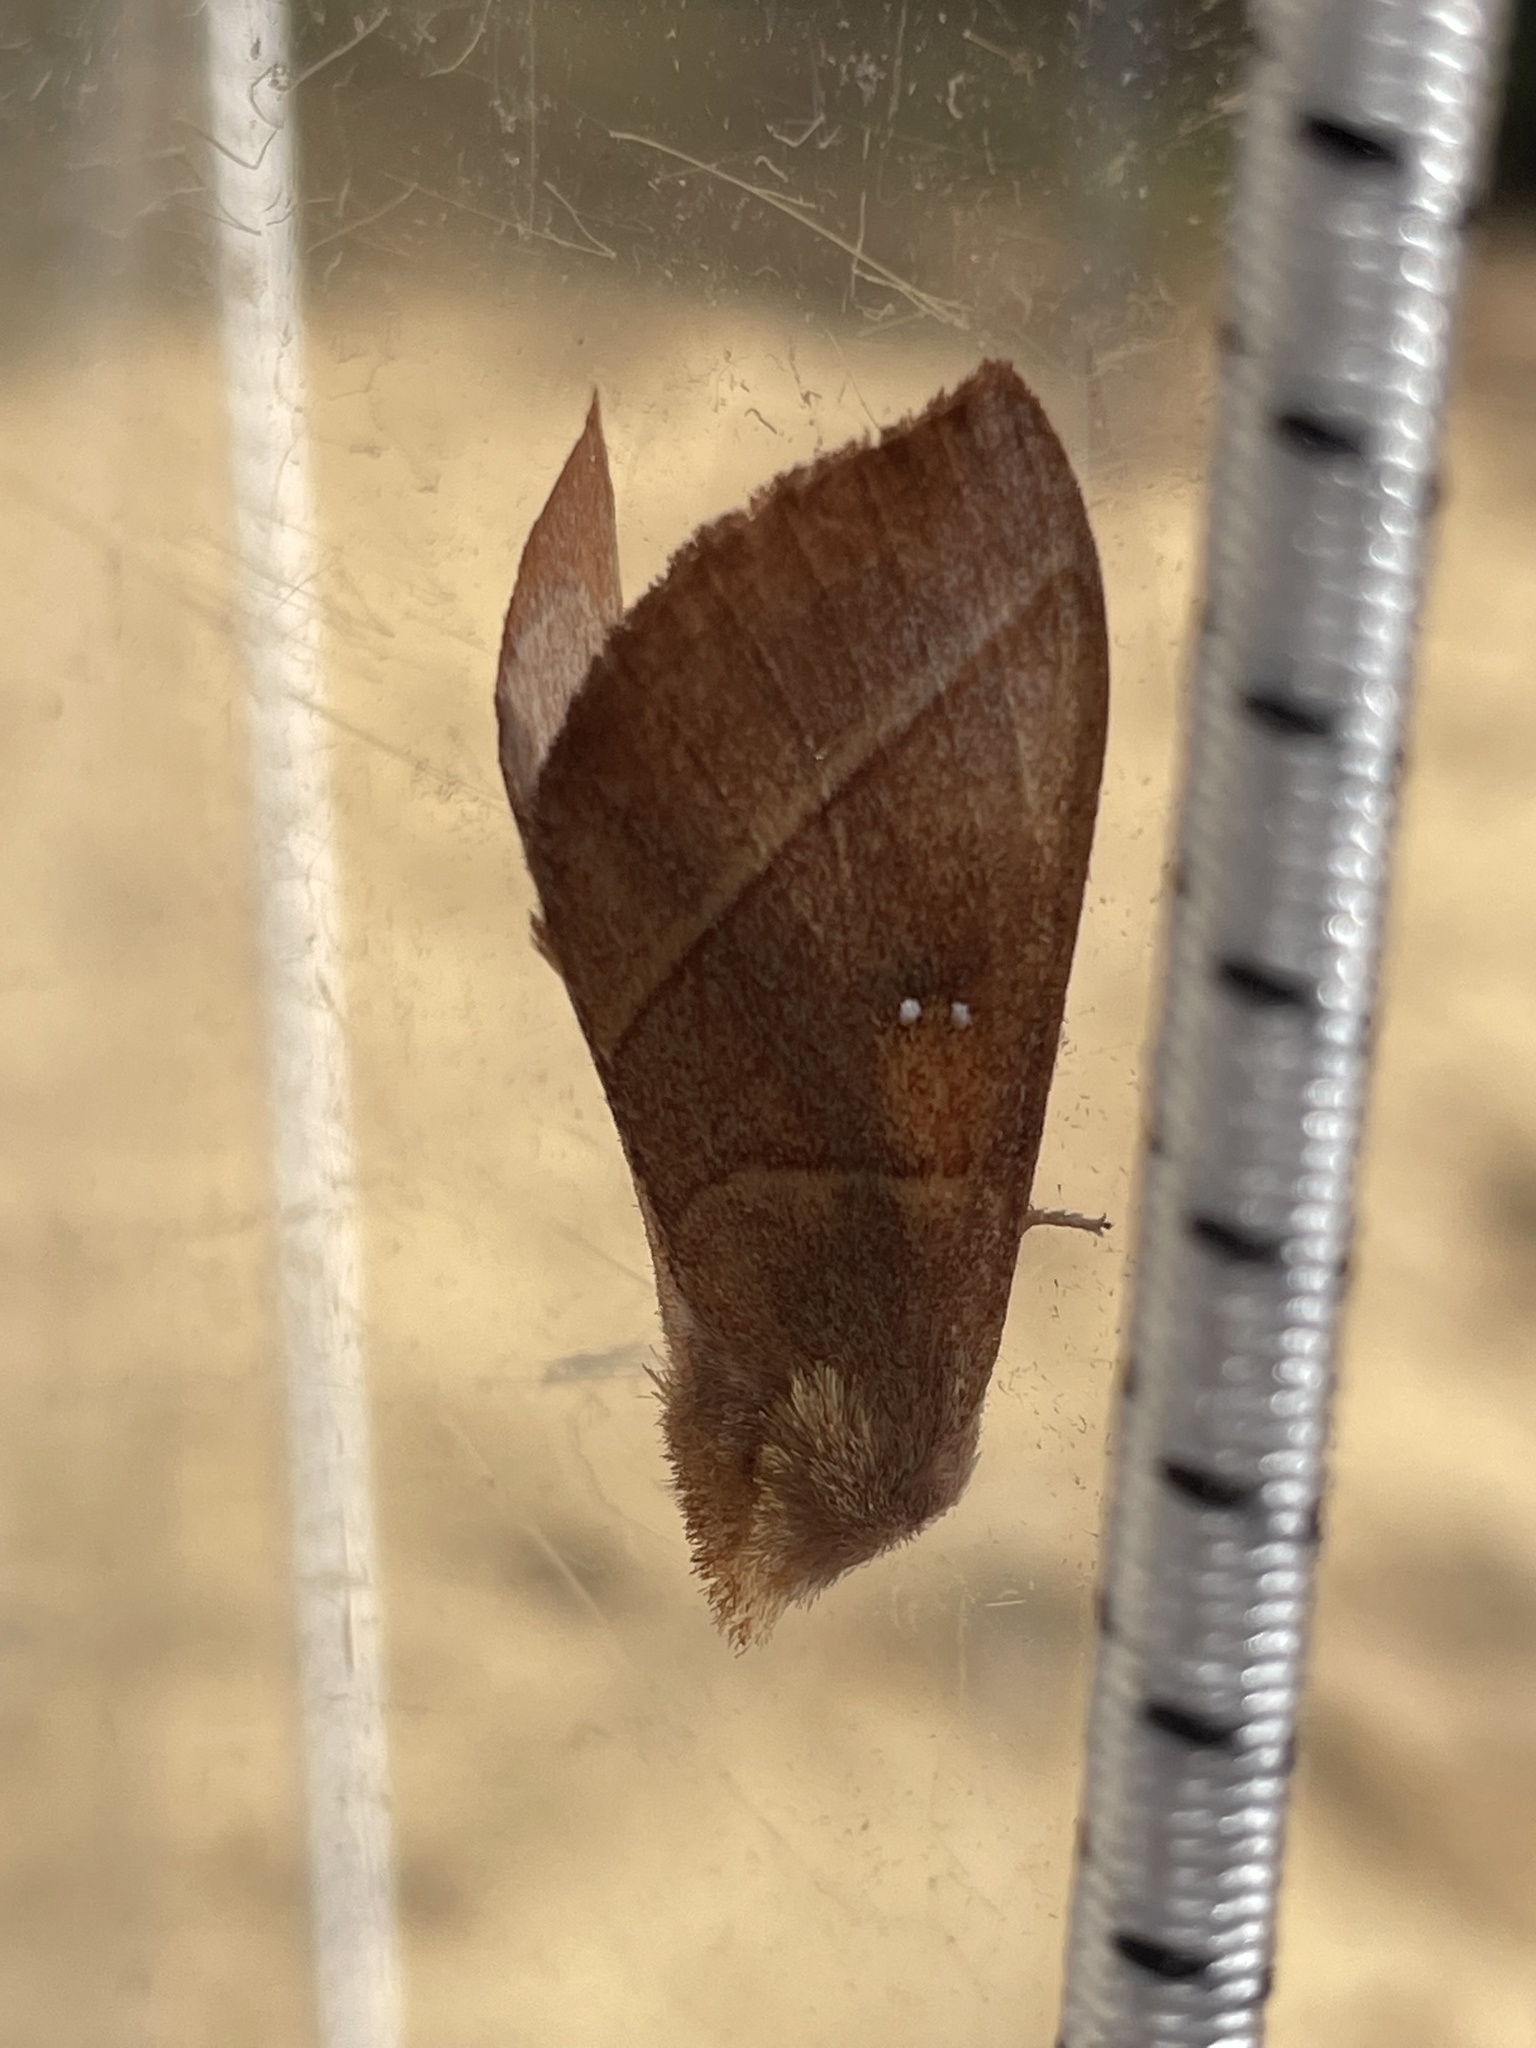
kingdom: Animalia
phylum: Arthropoda
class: Insecta
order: Lepidoptera
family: Notodontidae
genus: Nadata
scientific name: Nadata gibbosa
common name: White-dotted prominent
